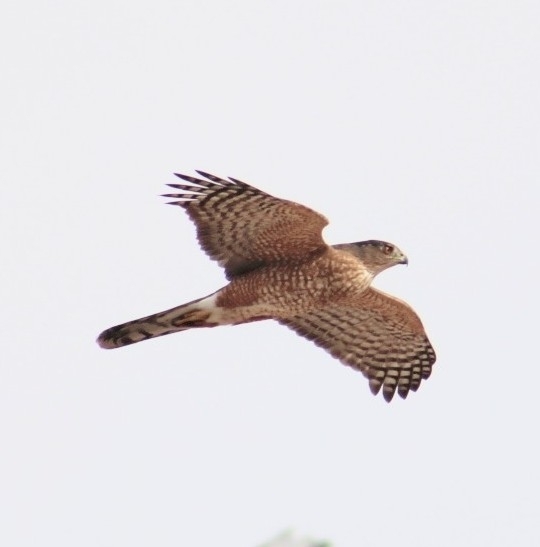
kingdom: Animalia
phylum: Chordata
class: Aves
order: Accipitriformes
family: Accipitridae
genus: Accipiter
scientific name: Accipiter cooperii
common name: Cooper's hawk
